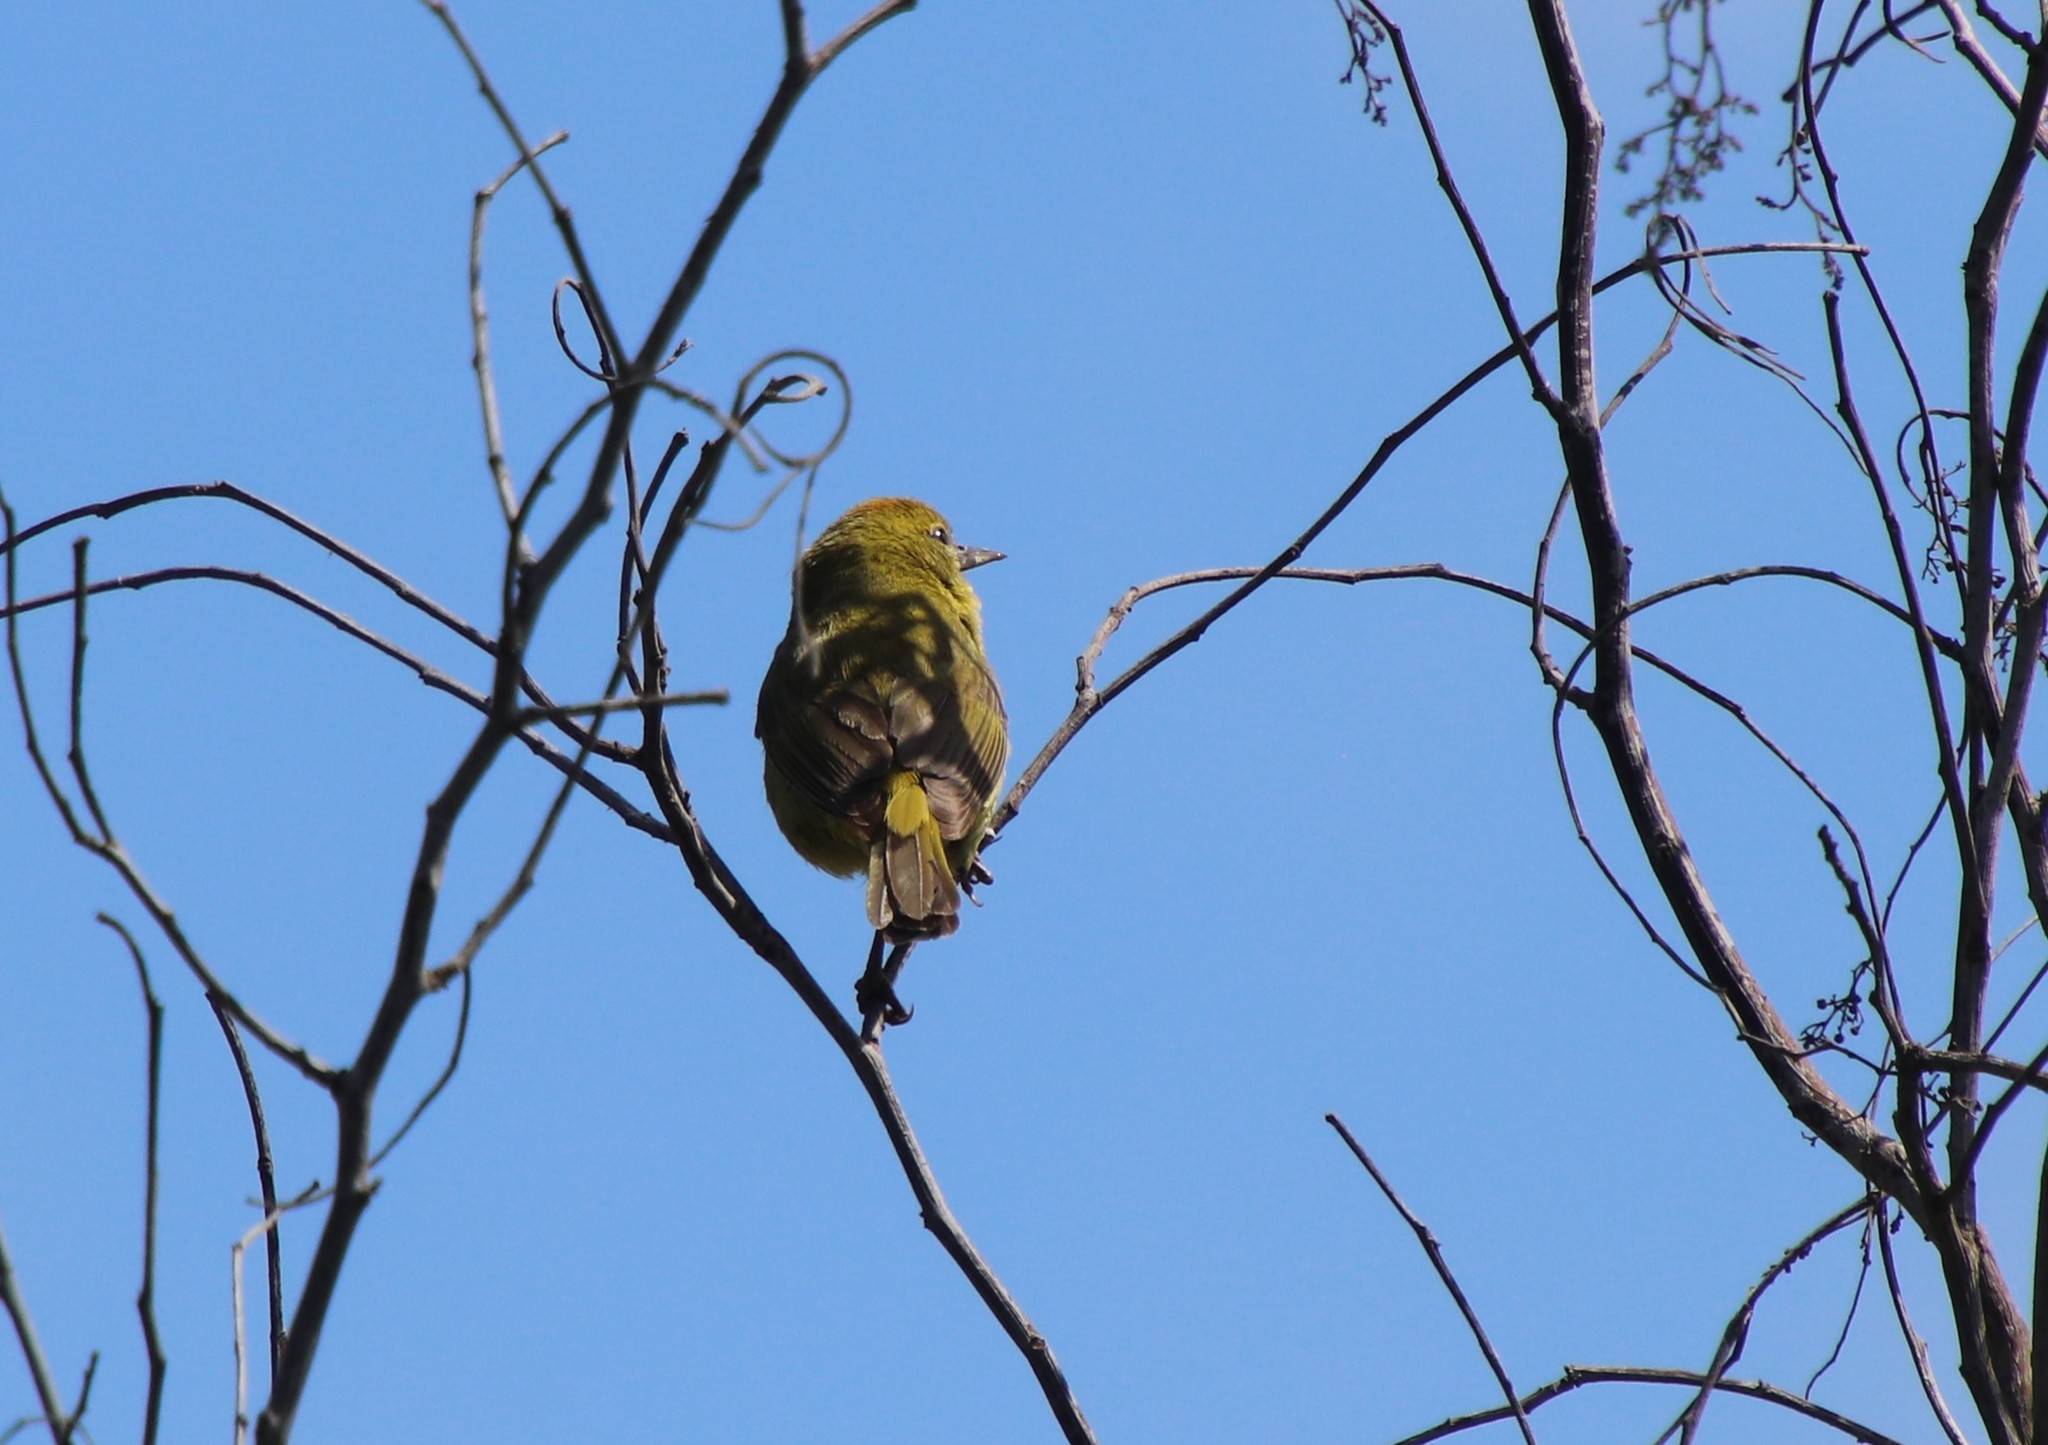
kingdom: Animalia
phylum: Chordata
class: Aves
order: Passeriformes
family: Parulidae
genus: Leiothlypis
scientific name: Leiothlypis celata
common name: Orange-crowned warbler
